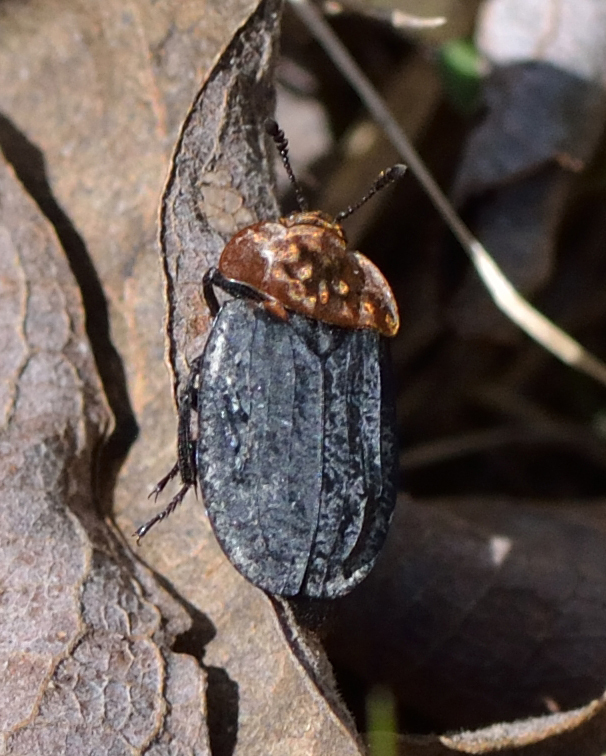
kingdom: Animalia
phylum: Arthropoda
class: Insecta
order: Coleoptera
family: Staphylinidae
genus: Oiceoptoma
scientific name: Oiceoptoma thoracicum
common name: Red-breasted carrion beetle
